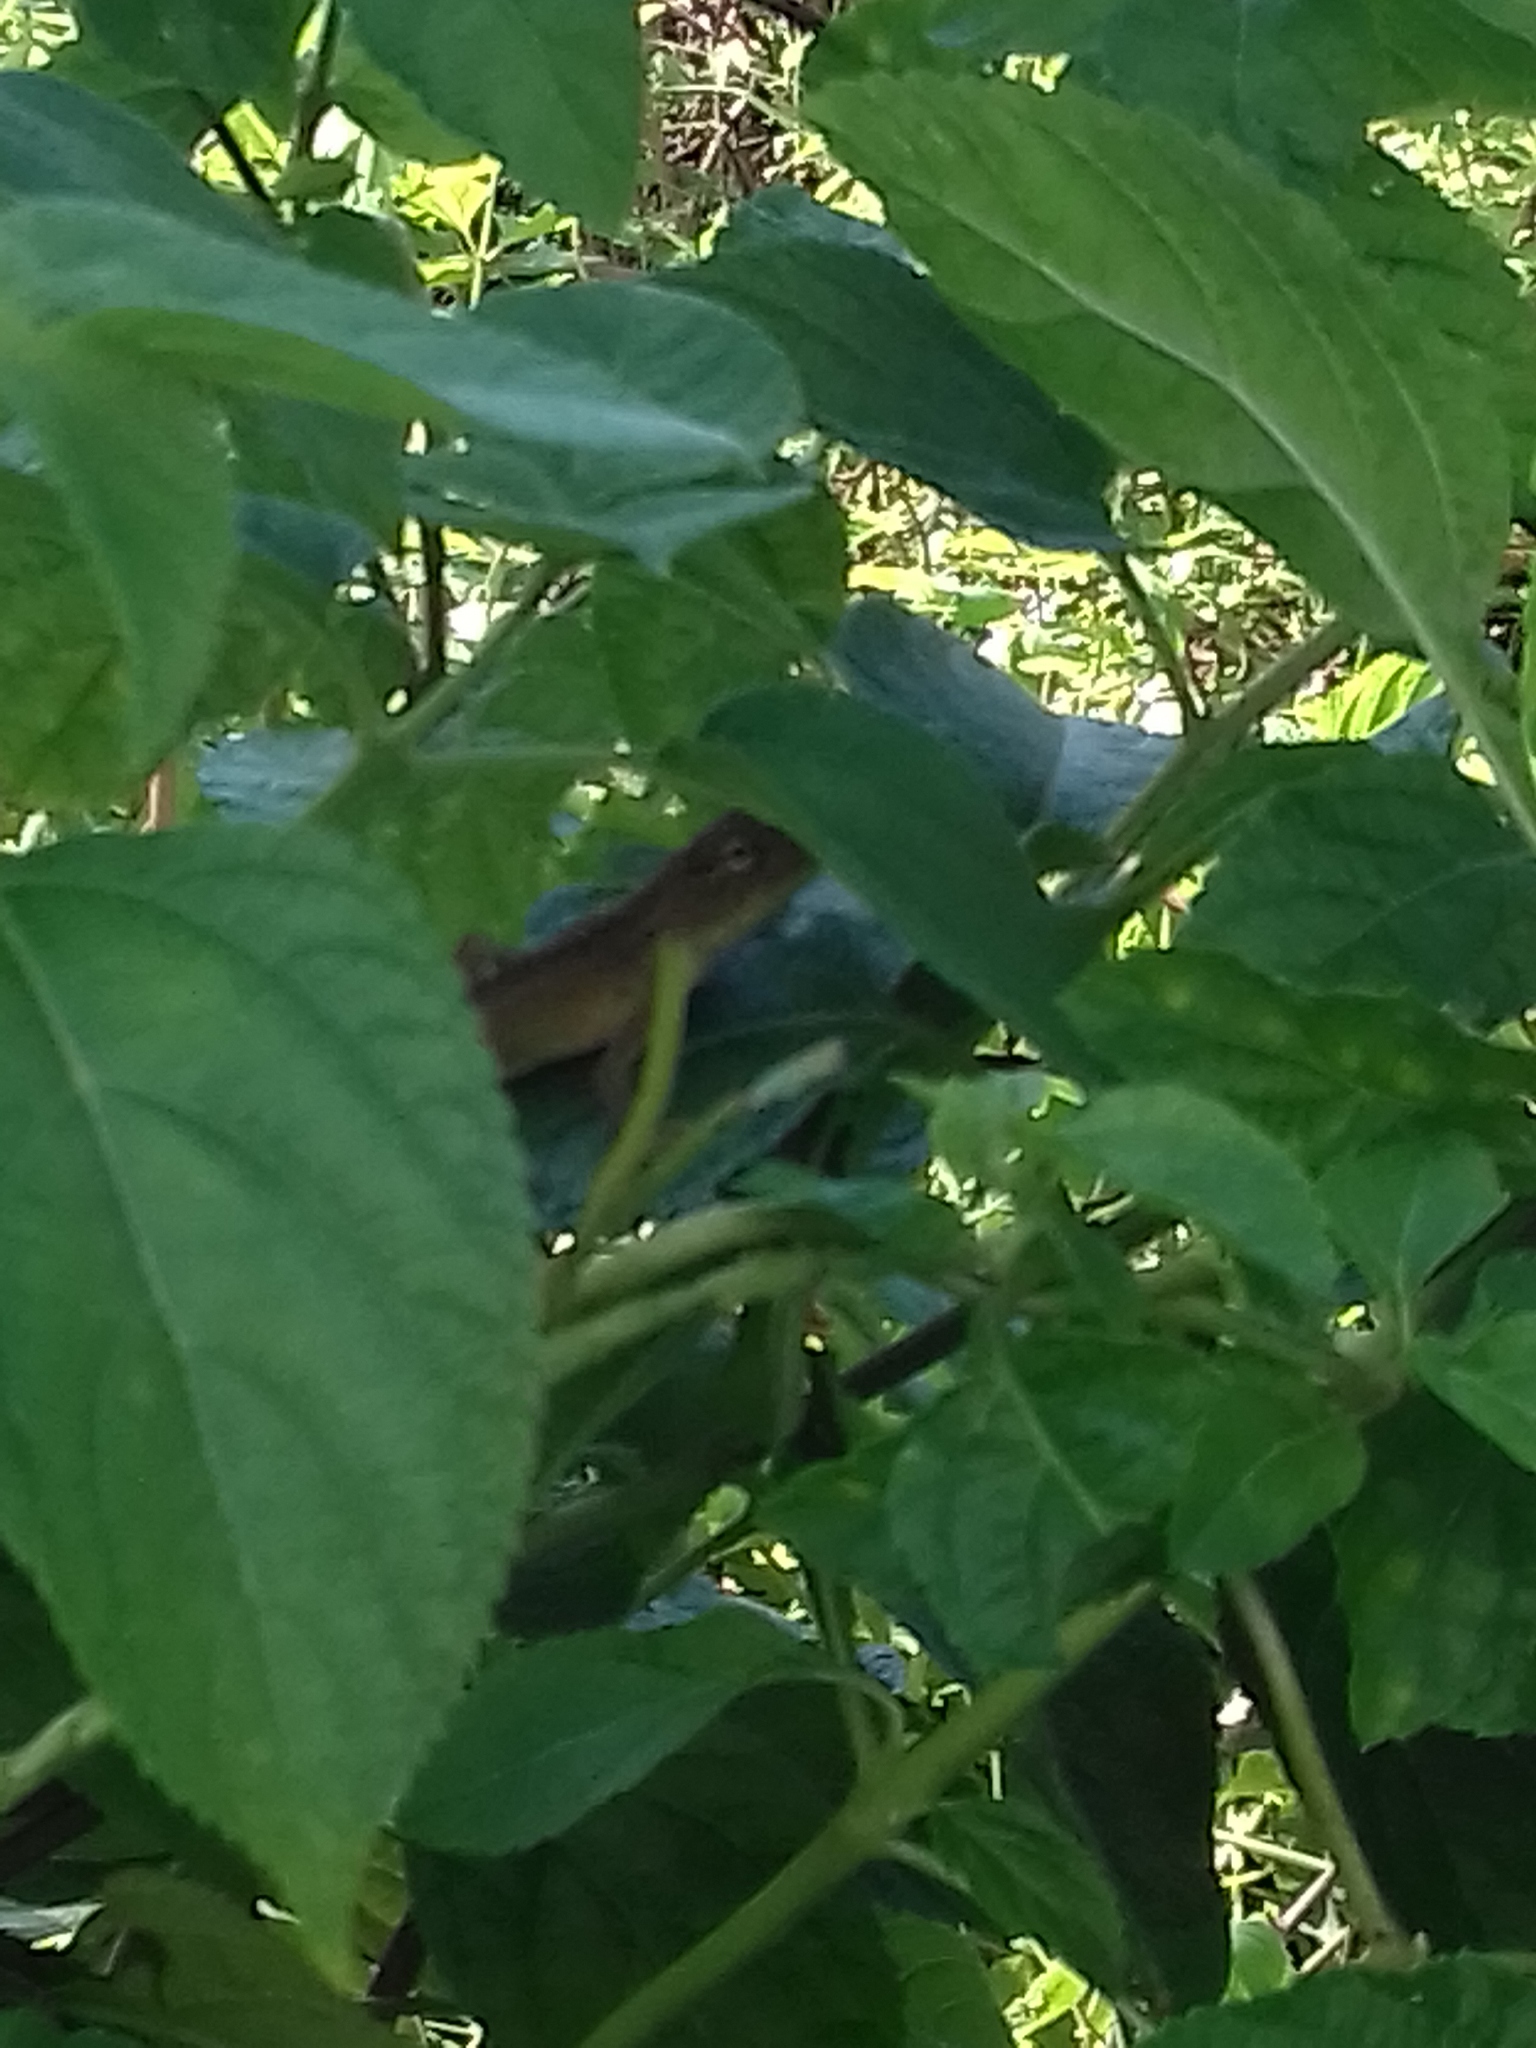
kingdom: Animalia
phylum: Chordata
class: Squamata
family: Agamidae
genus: Calotes
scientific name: Calotes versicolor
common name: Oriental garden lizard
